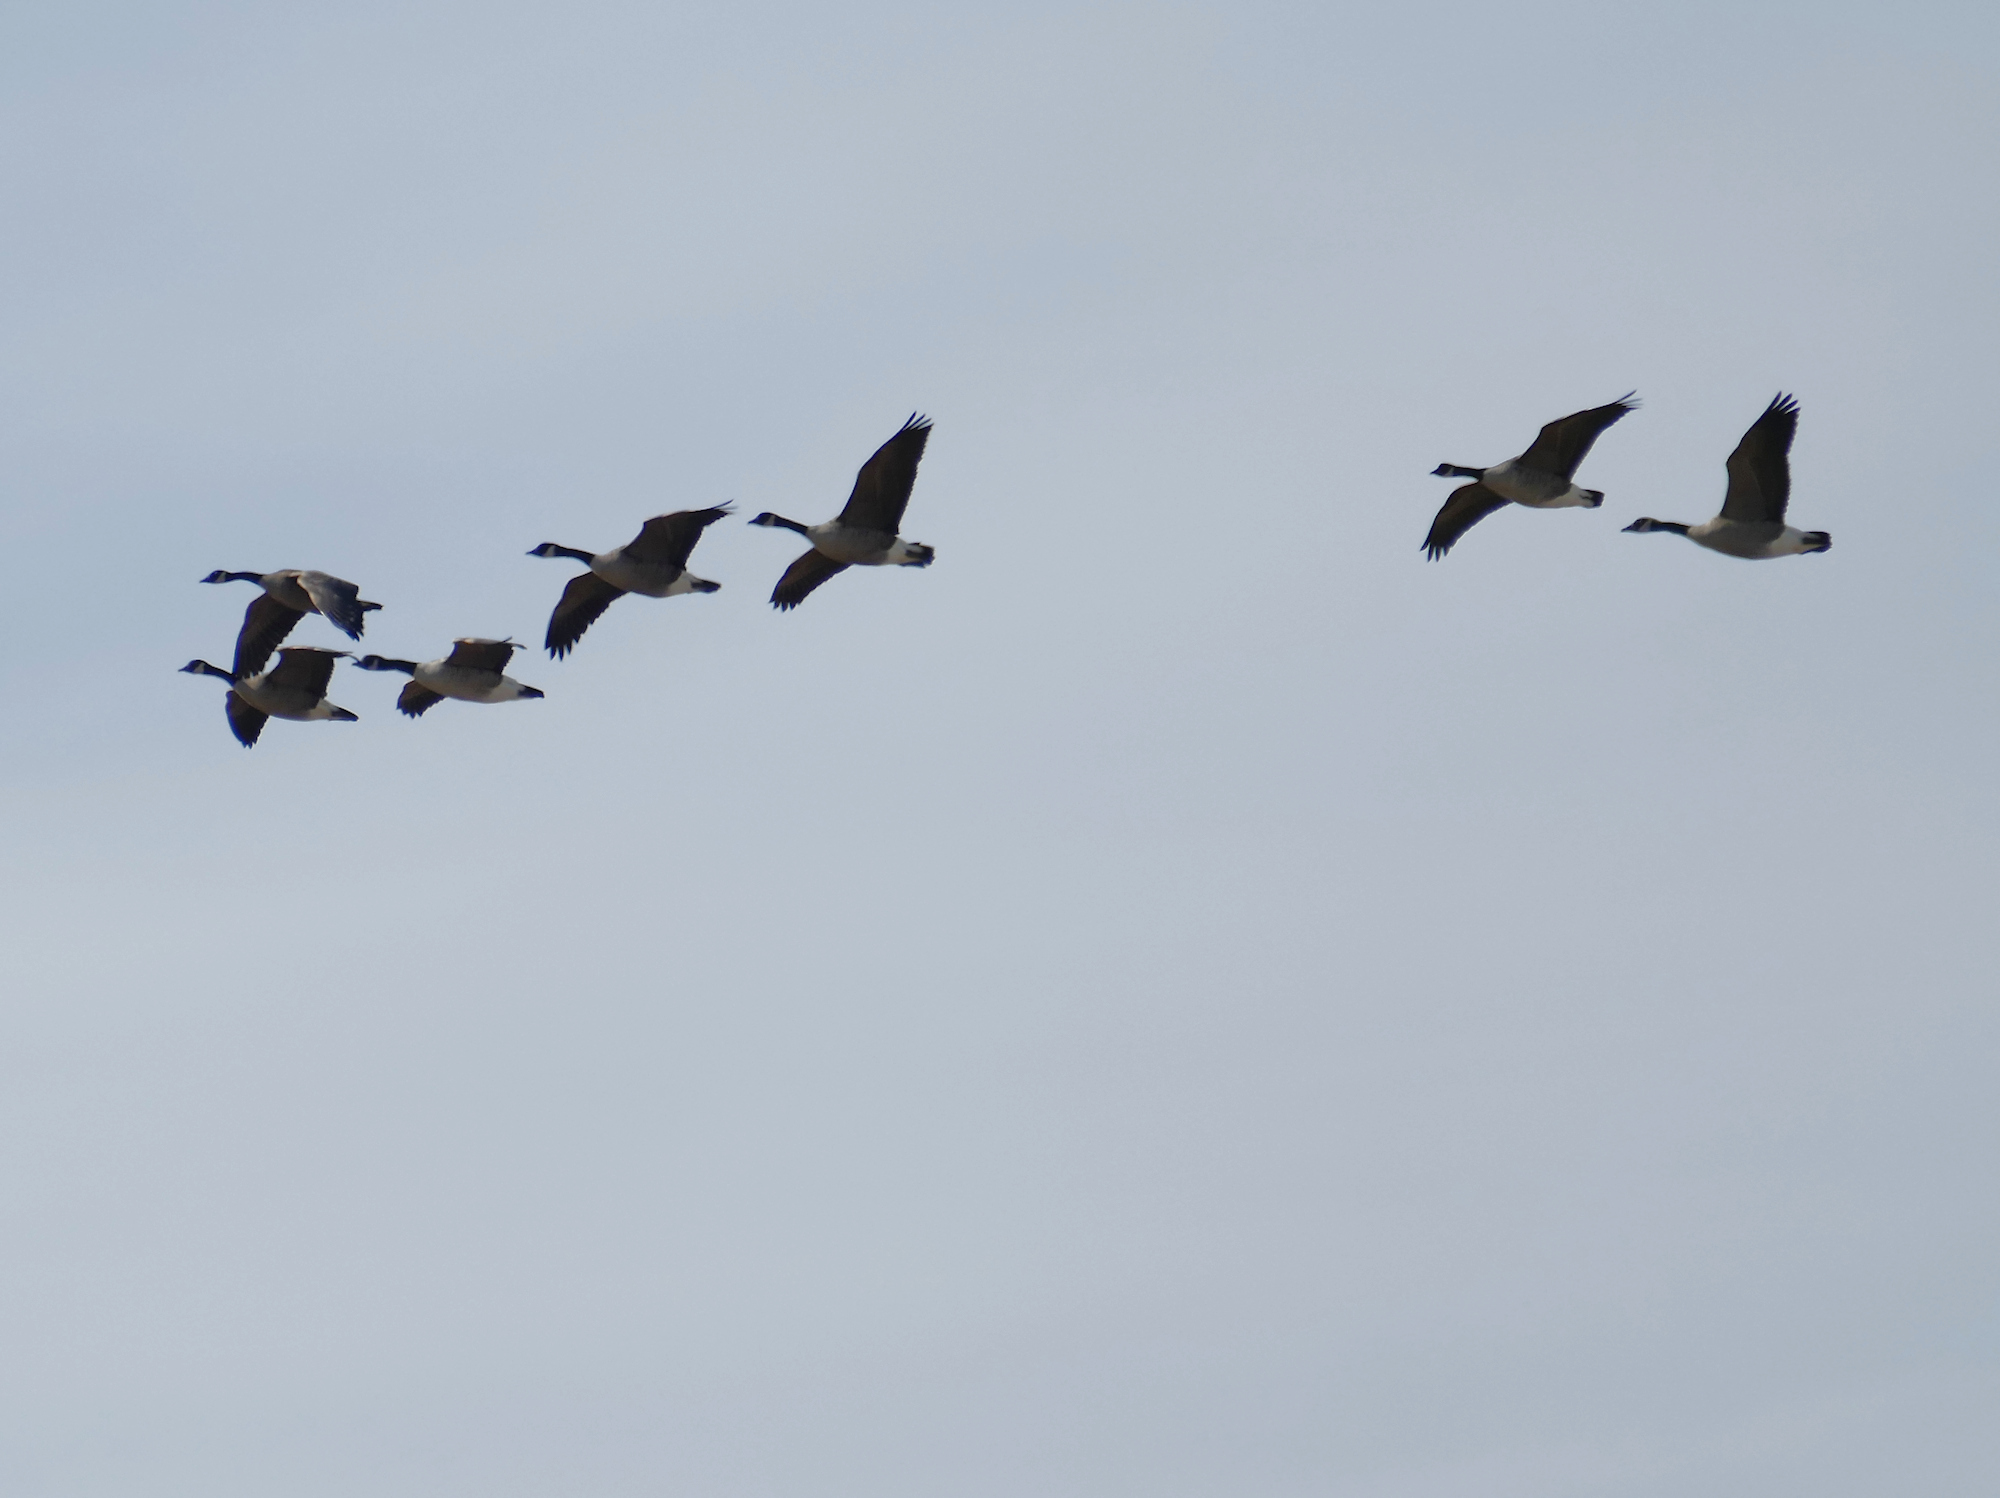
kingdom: Animalia
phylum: Chordata
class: Aves
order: Anseriformes
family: Anatidae
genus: Branta
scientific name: Branta canadensis
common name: Canada goose
